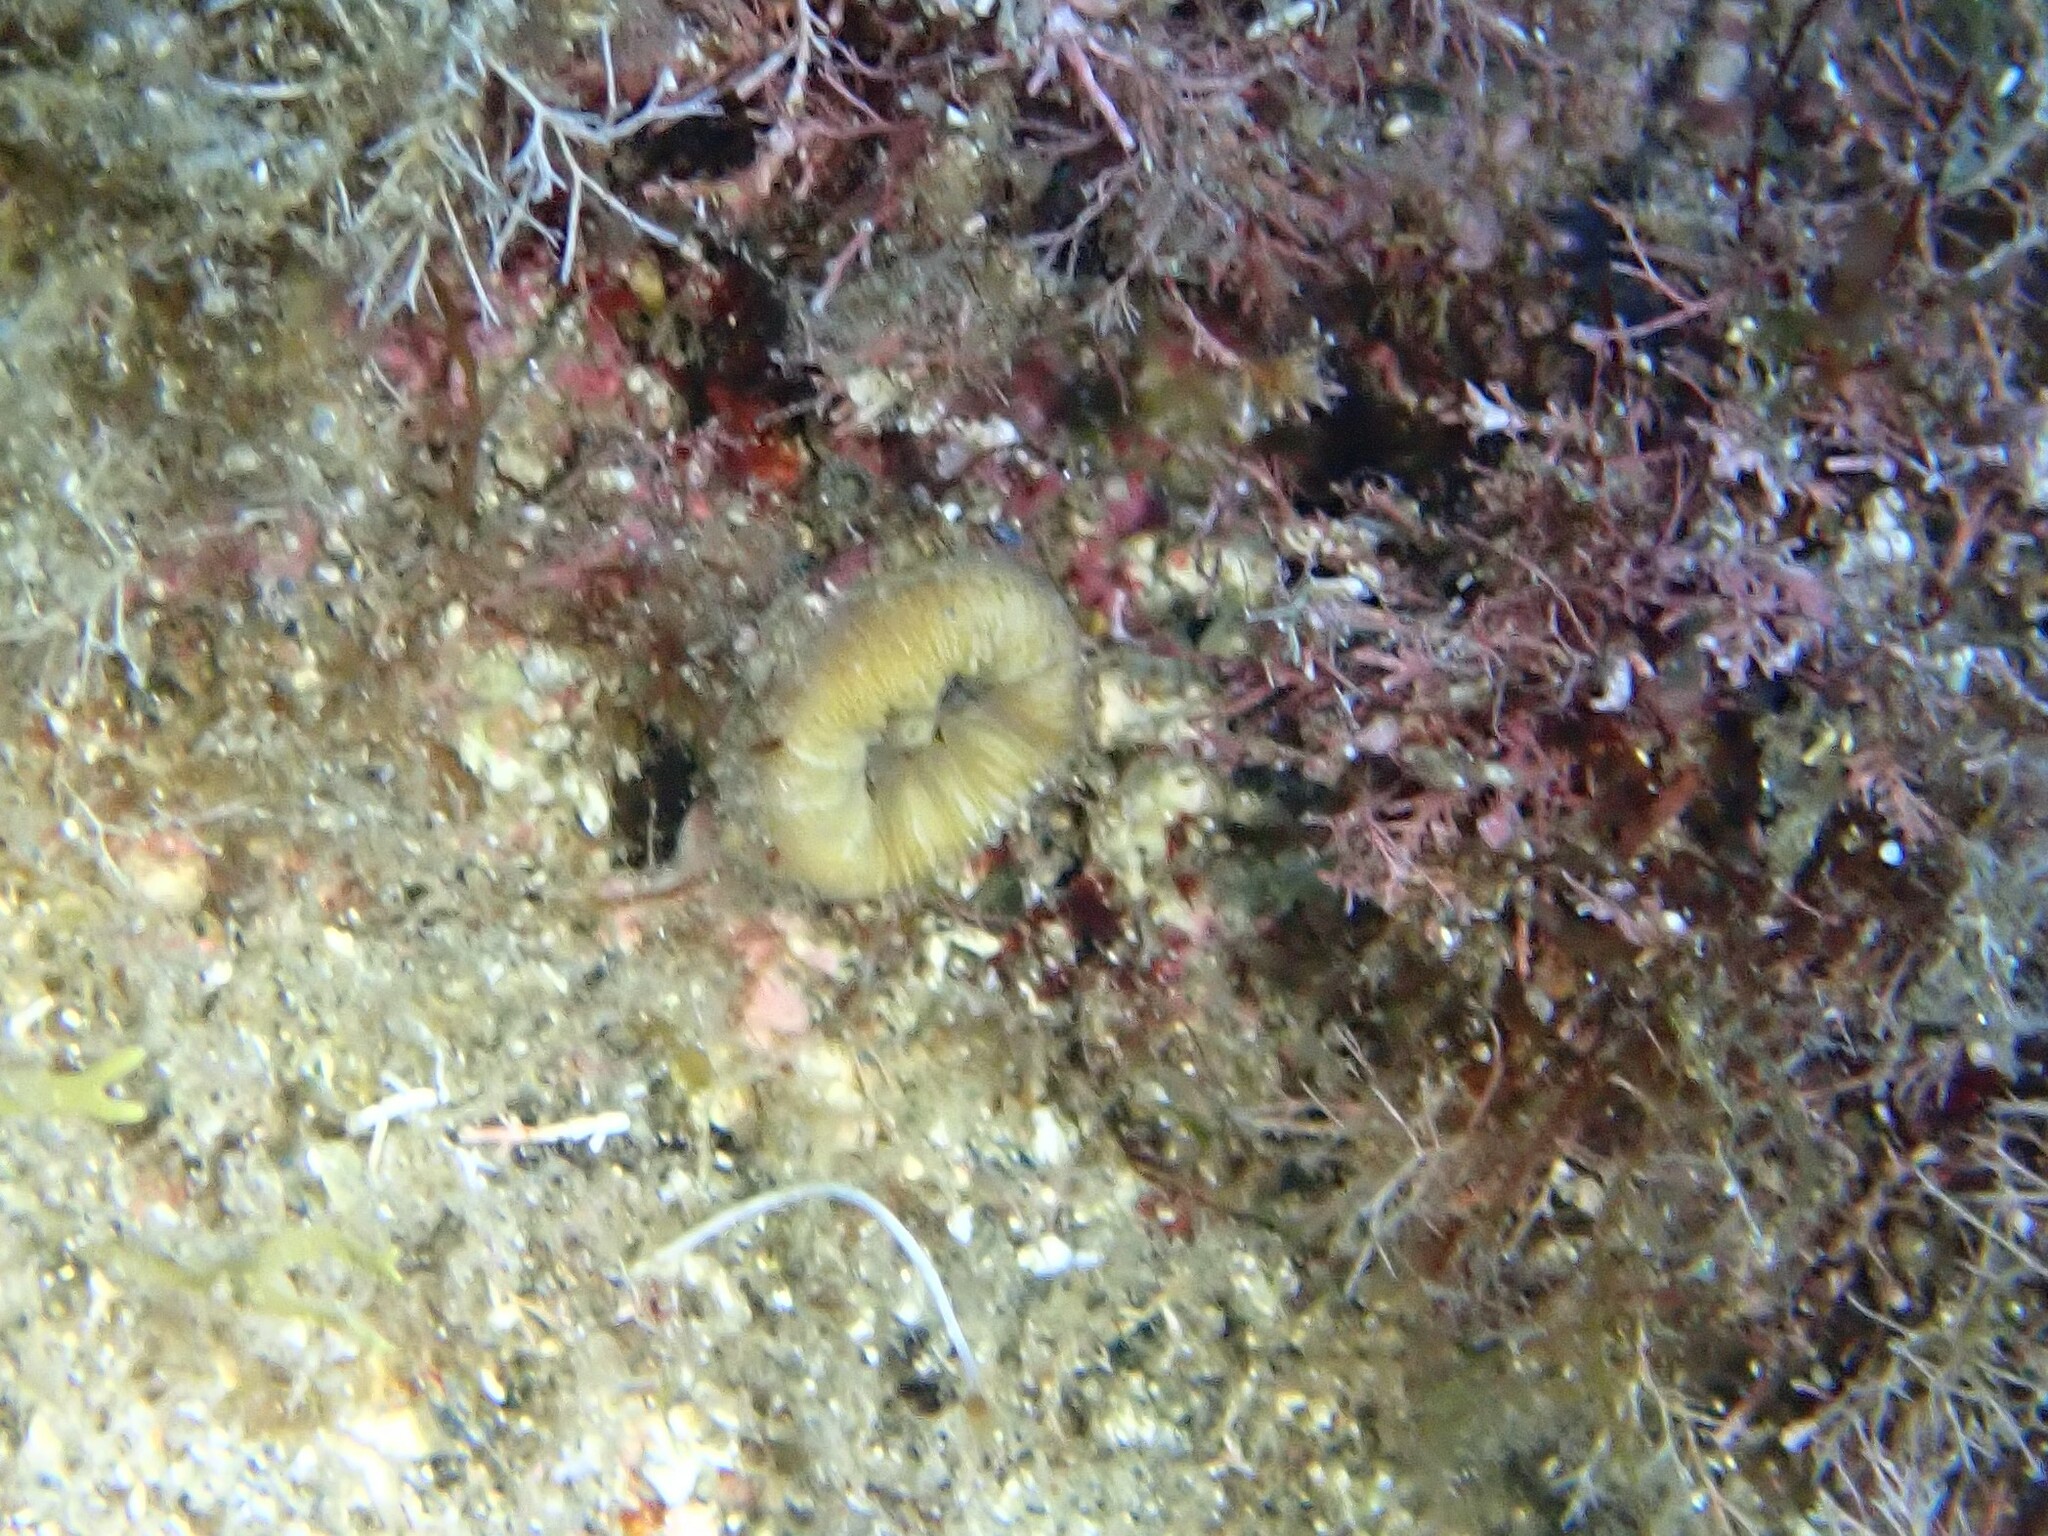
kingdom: Animalia
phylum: Cnidaria
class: Anthozoa
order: Scleractinia
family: Dendrophylliidae
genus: Balanophyllia
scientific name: Balanophyllia europaea
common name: Scarlet coral
